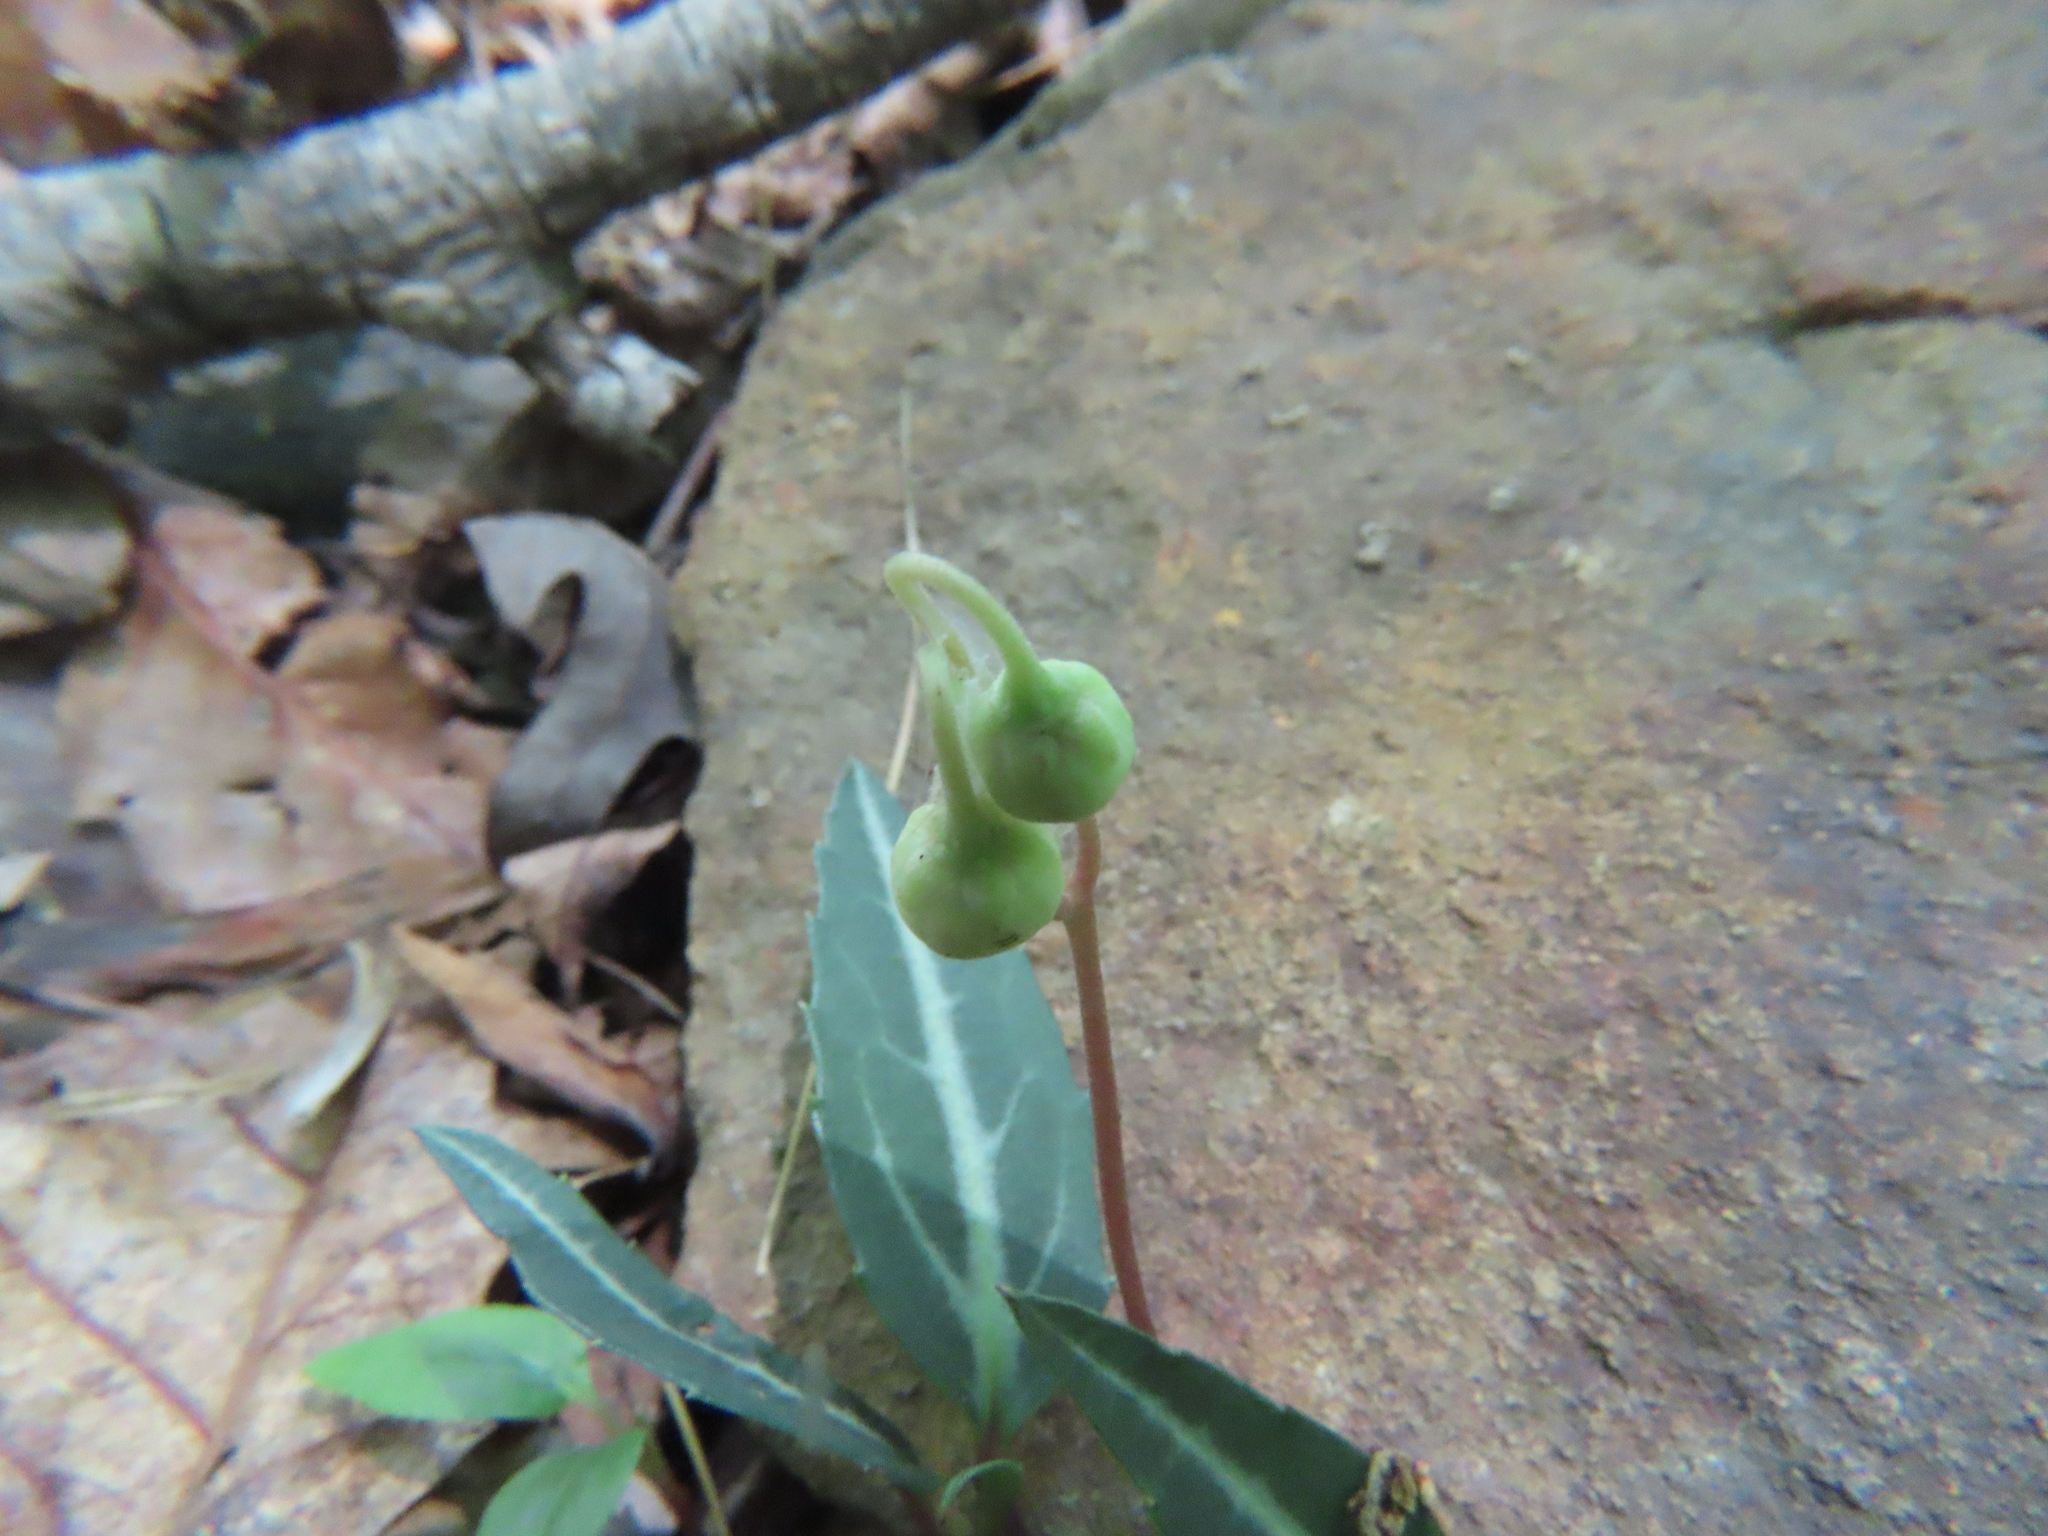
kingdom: Plantae
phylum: Tracheophyta
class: Magnoliopsida
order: Ericales
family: Ericaceae
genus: Chimaphila
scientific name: Chimaphila maculata
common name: Spotted pipsissewa
